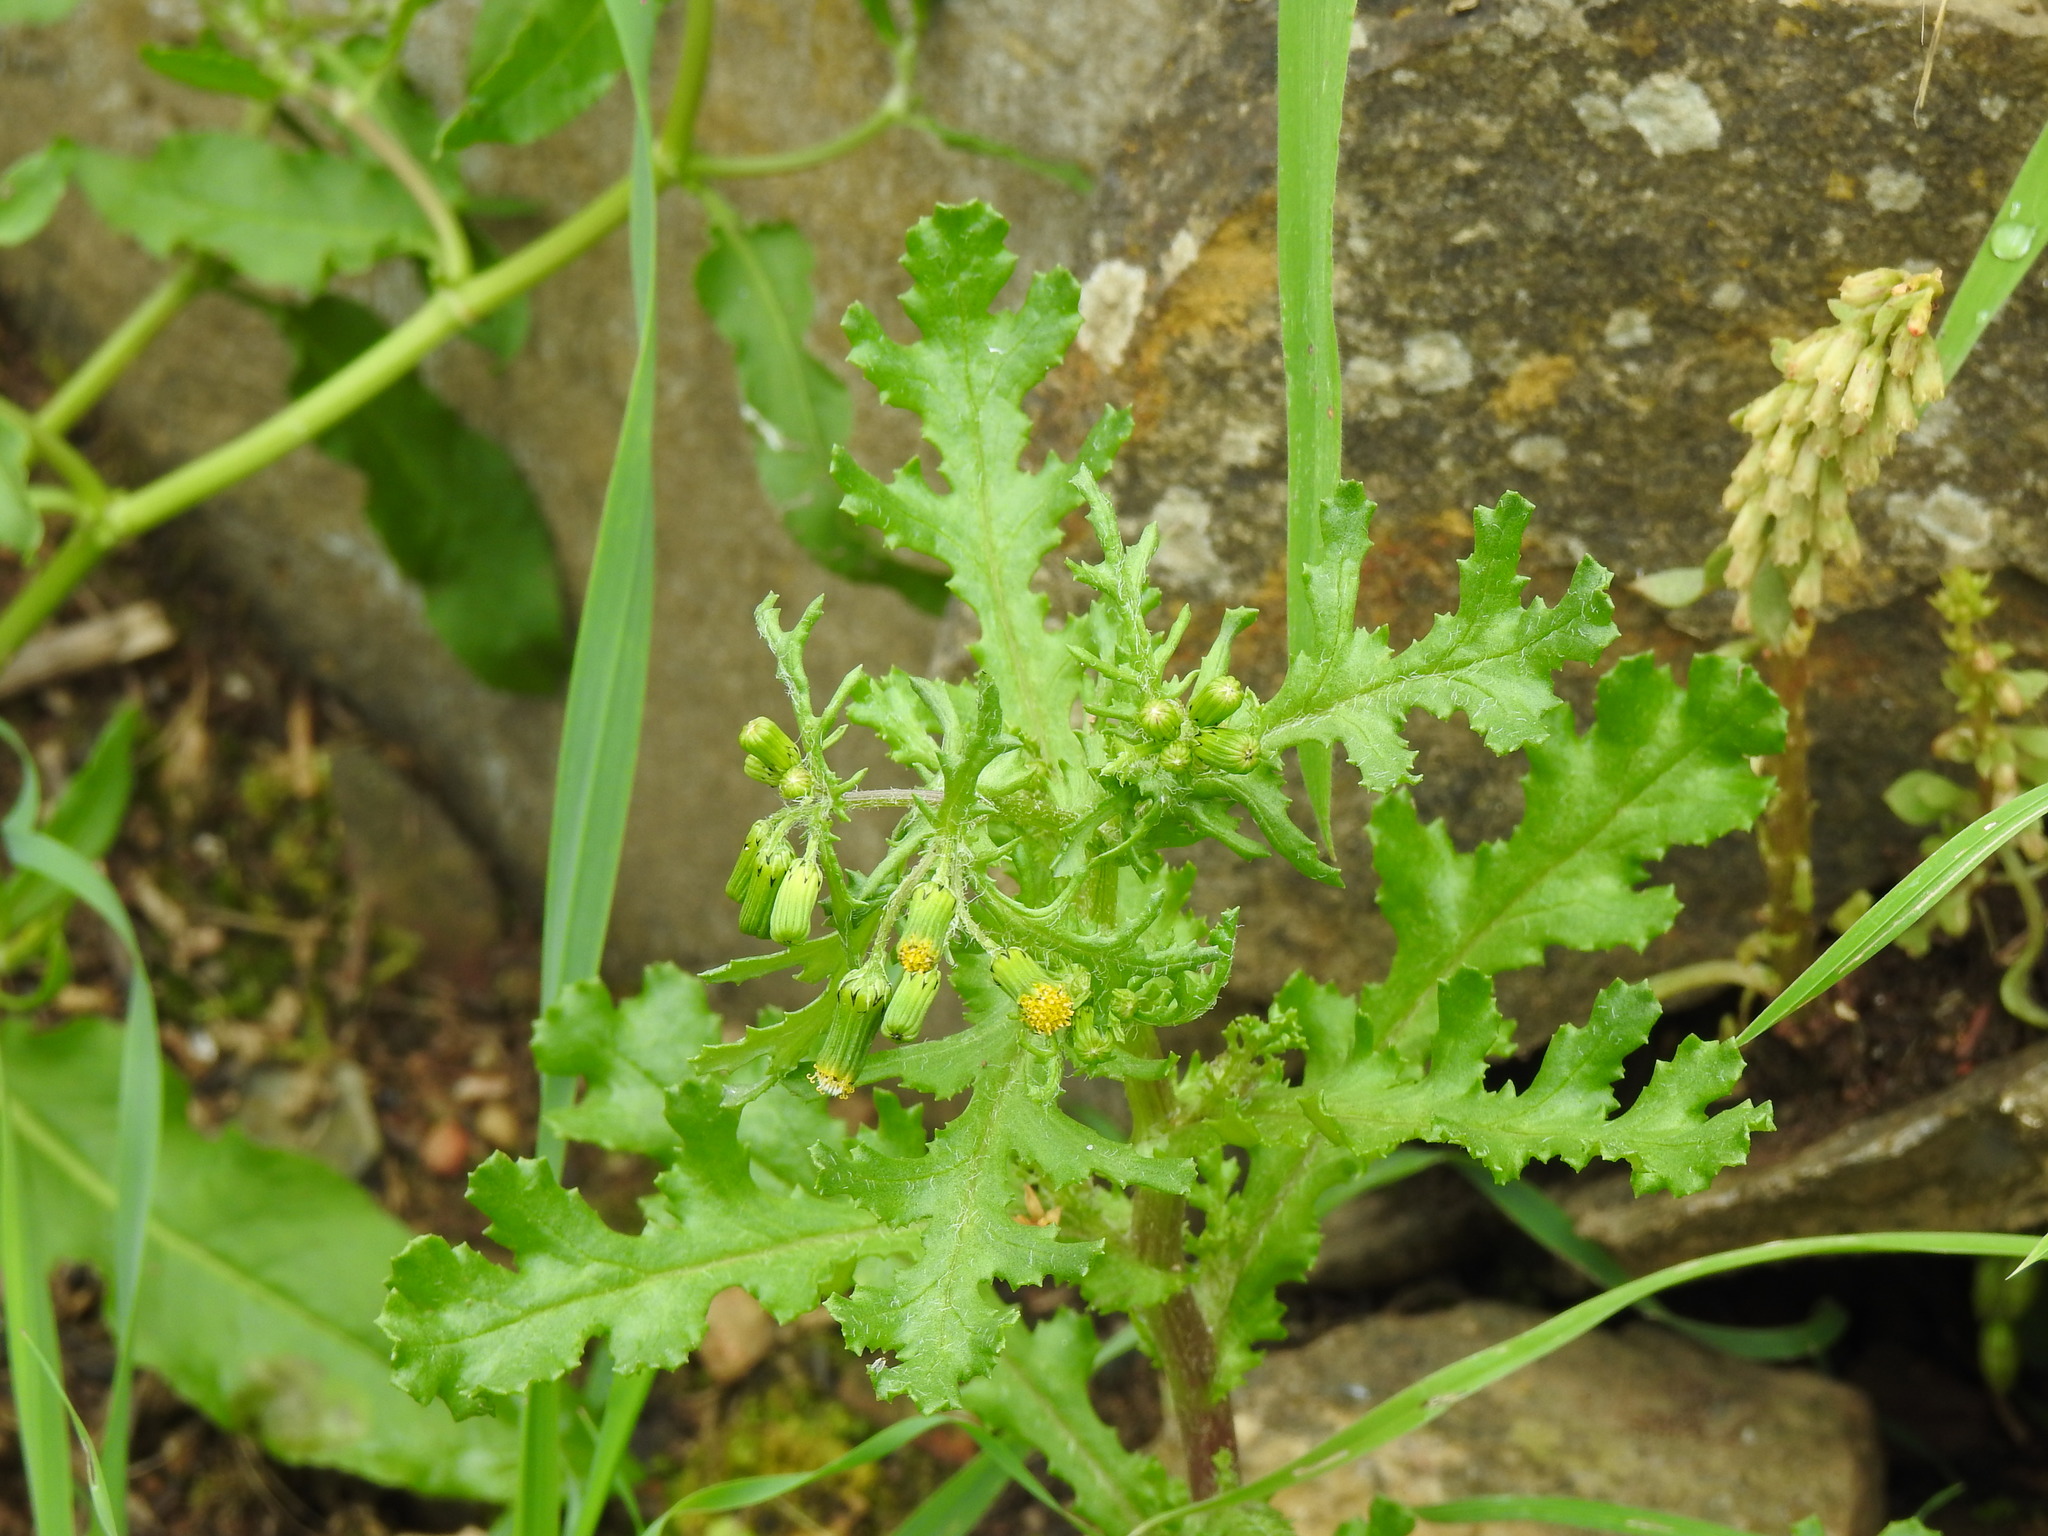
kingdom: Plantae
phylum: Tracheophyta
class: Magnoliopsida
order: Asterales
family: Asteraceae
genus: Senecio
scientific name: Senecio vulgaris
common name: Old-man-in-the-spring
